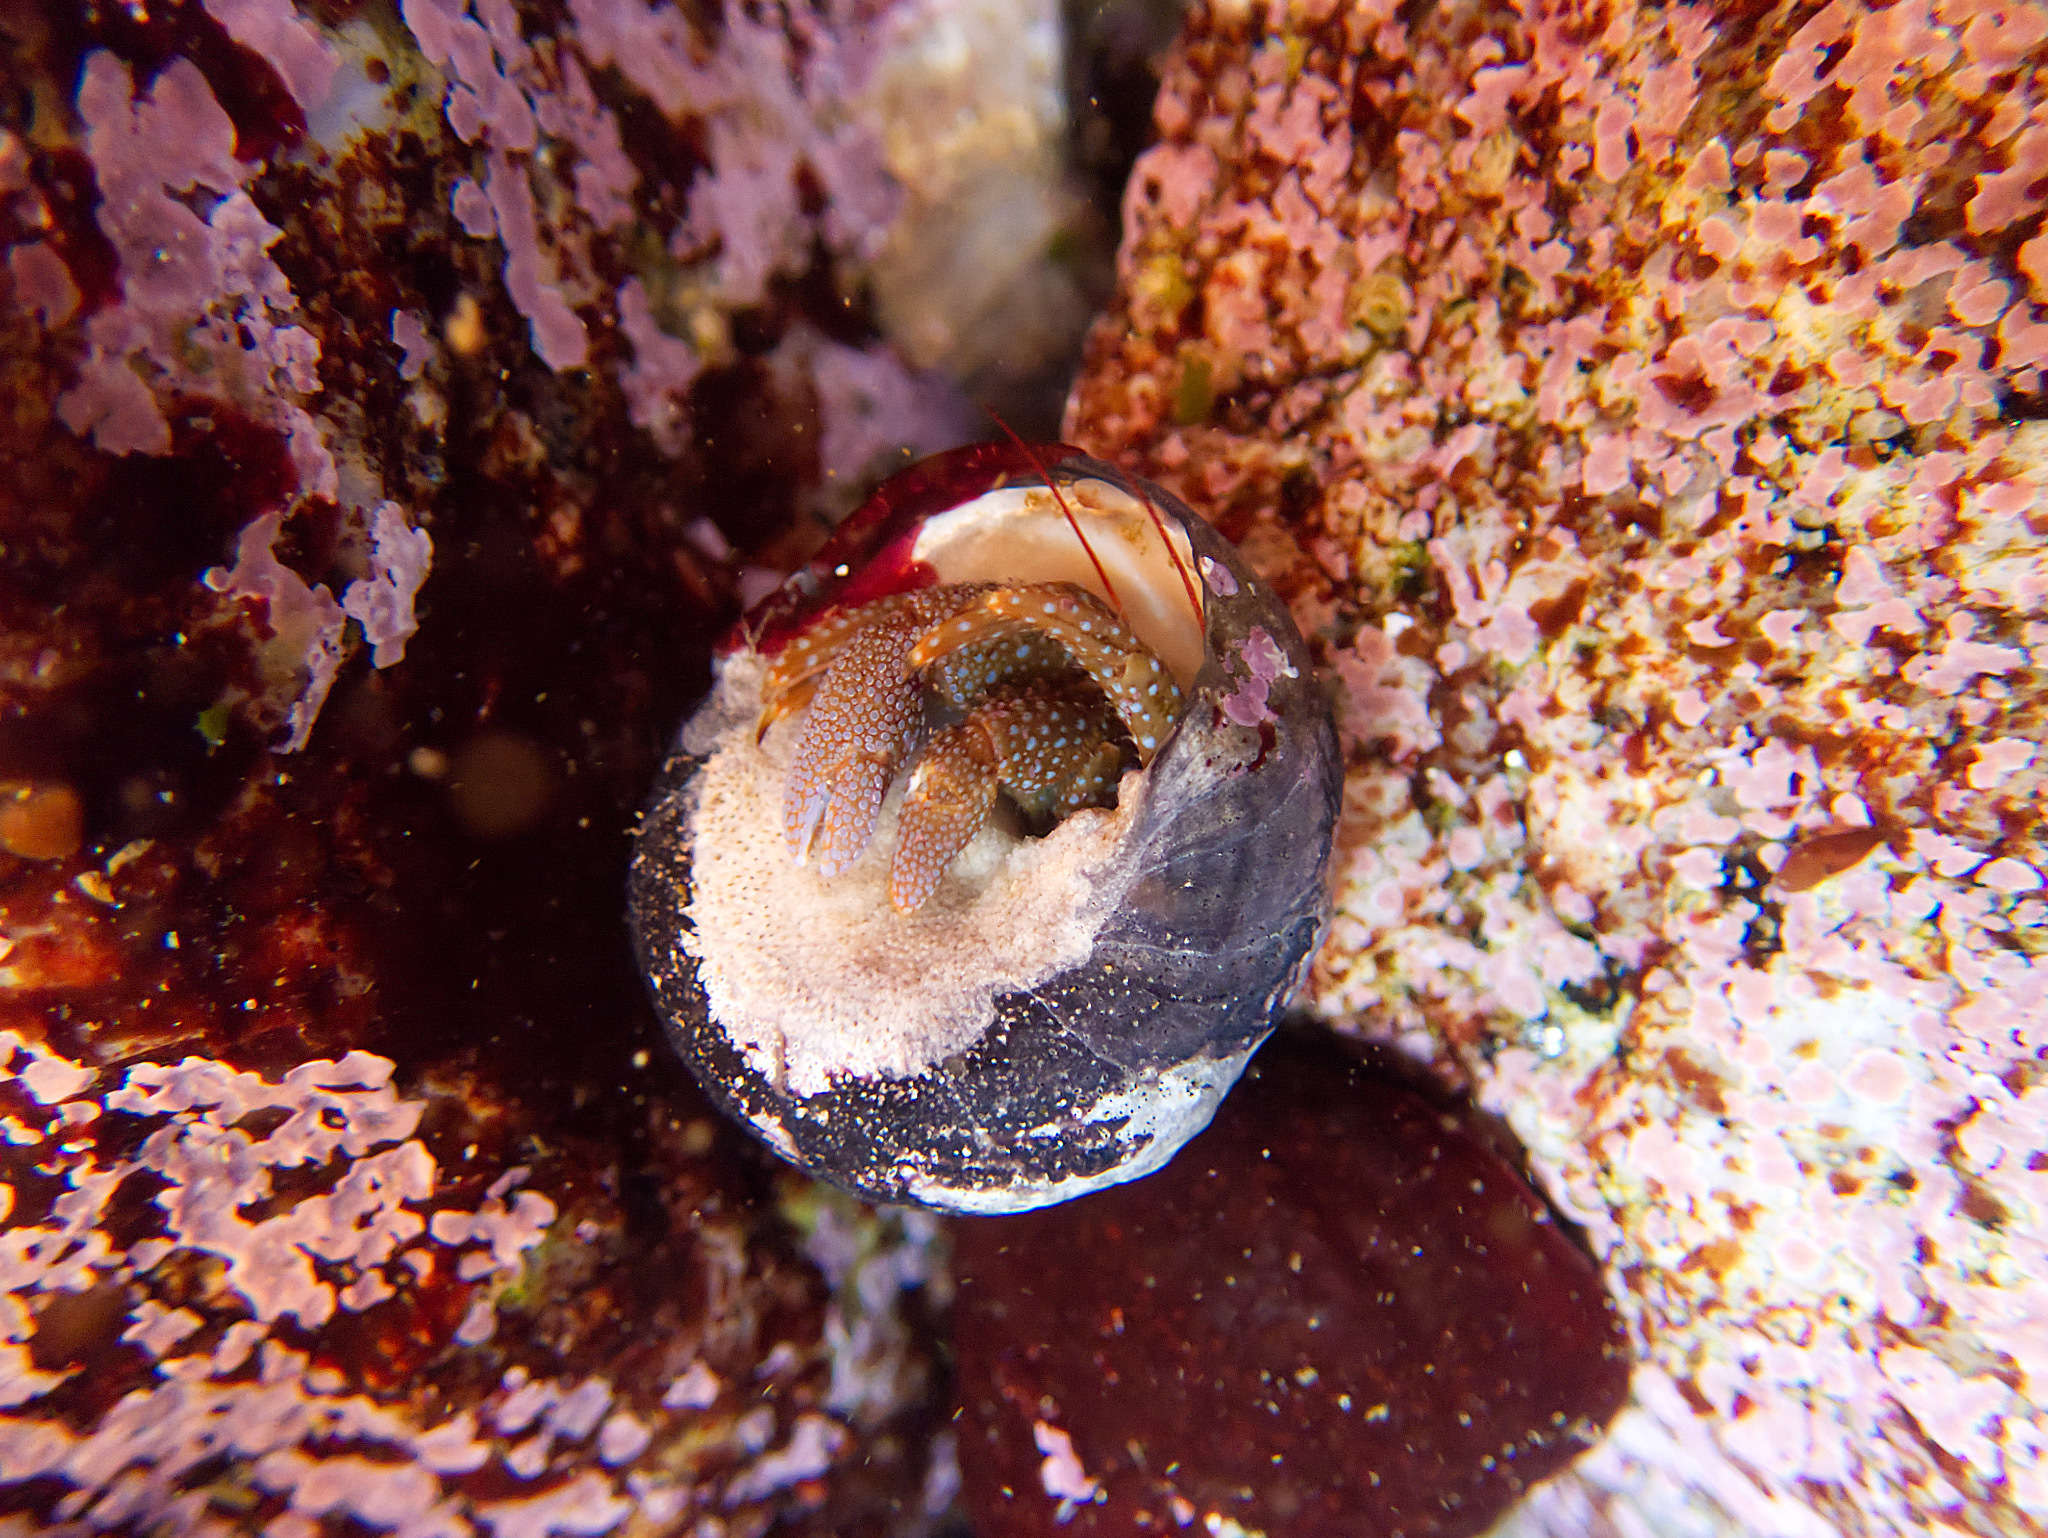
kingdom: Animalia
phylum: Arthropoda
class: Malacostraca
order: Decapoda
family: Paguridae
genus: Pagurus
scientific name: Pagurus granosimanus
